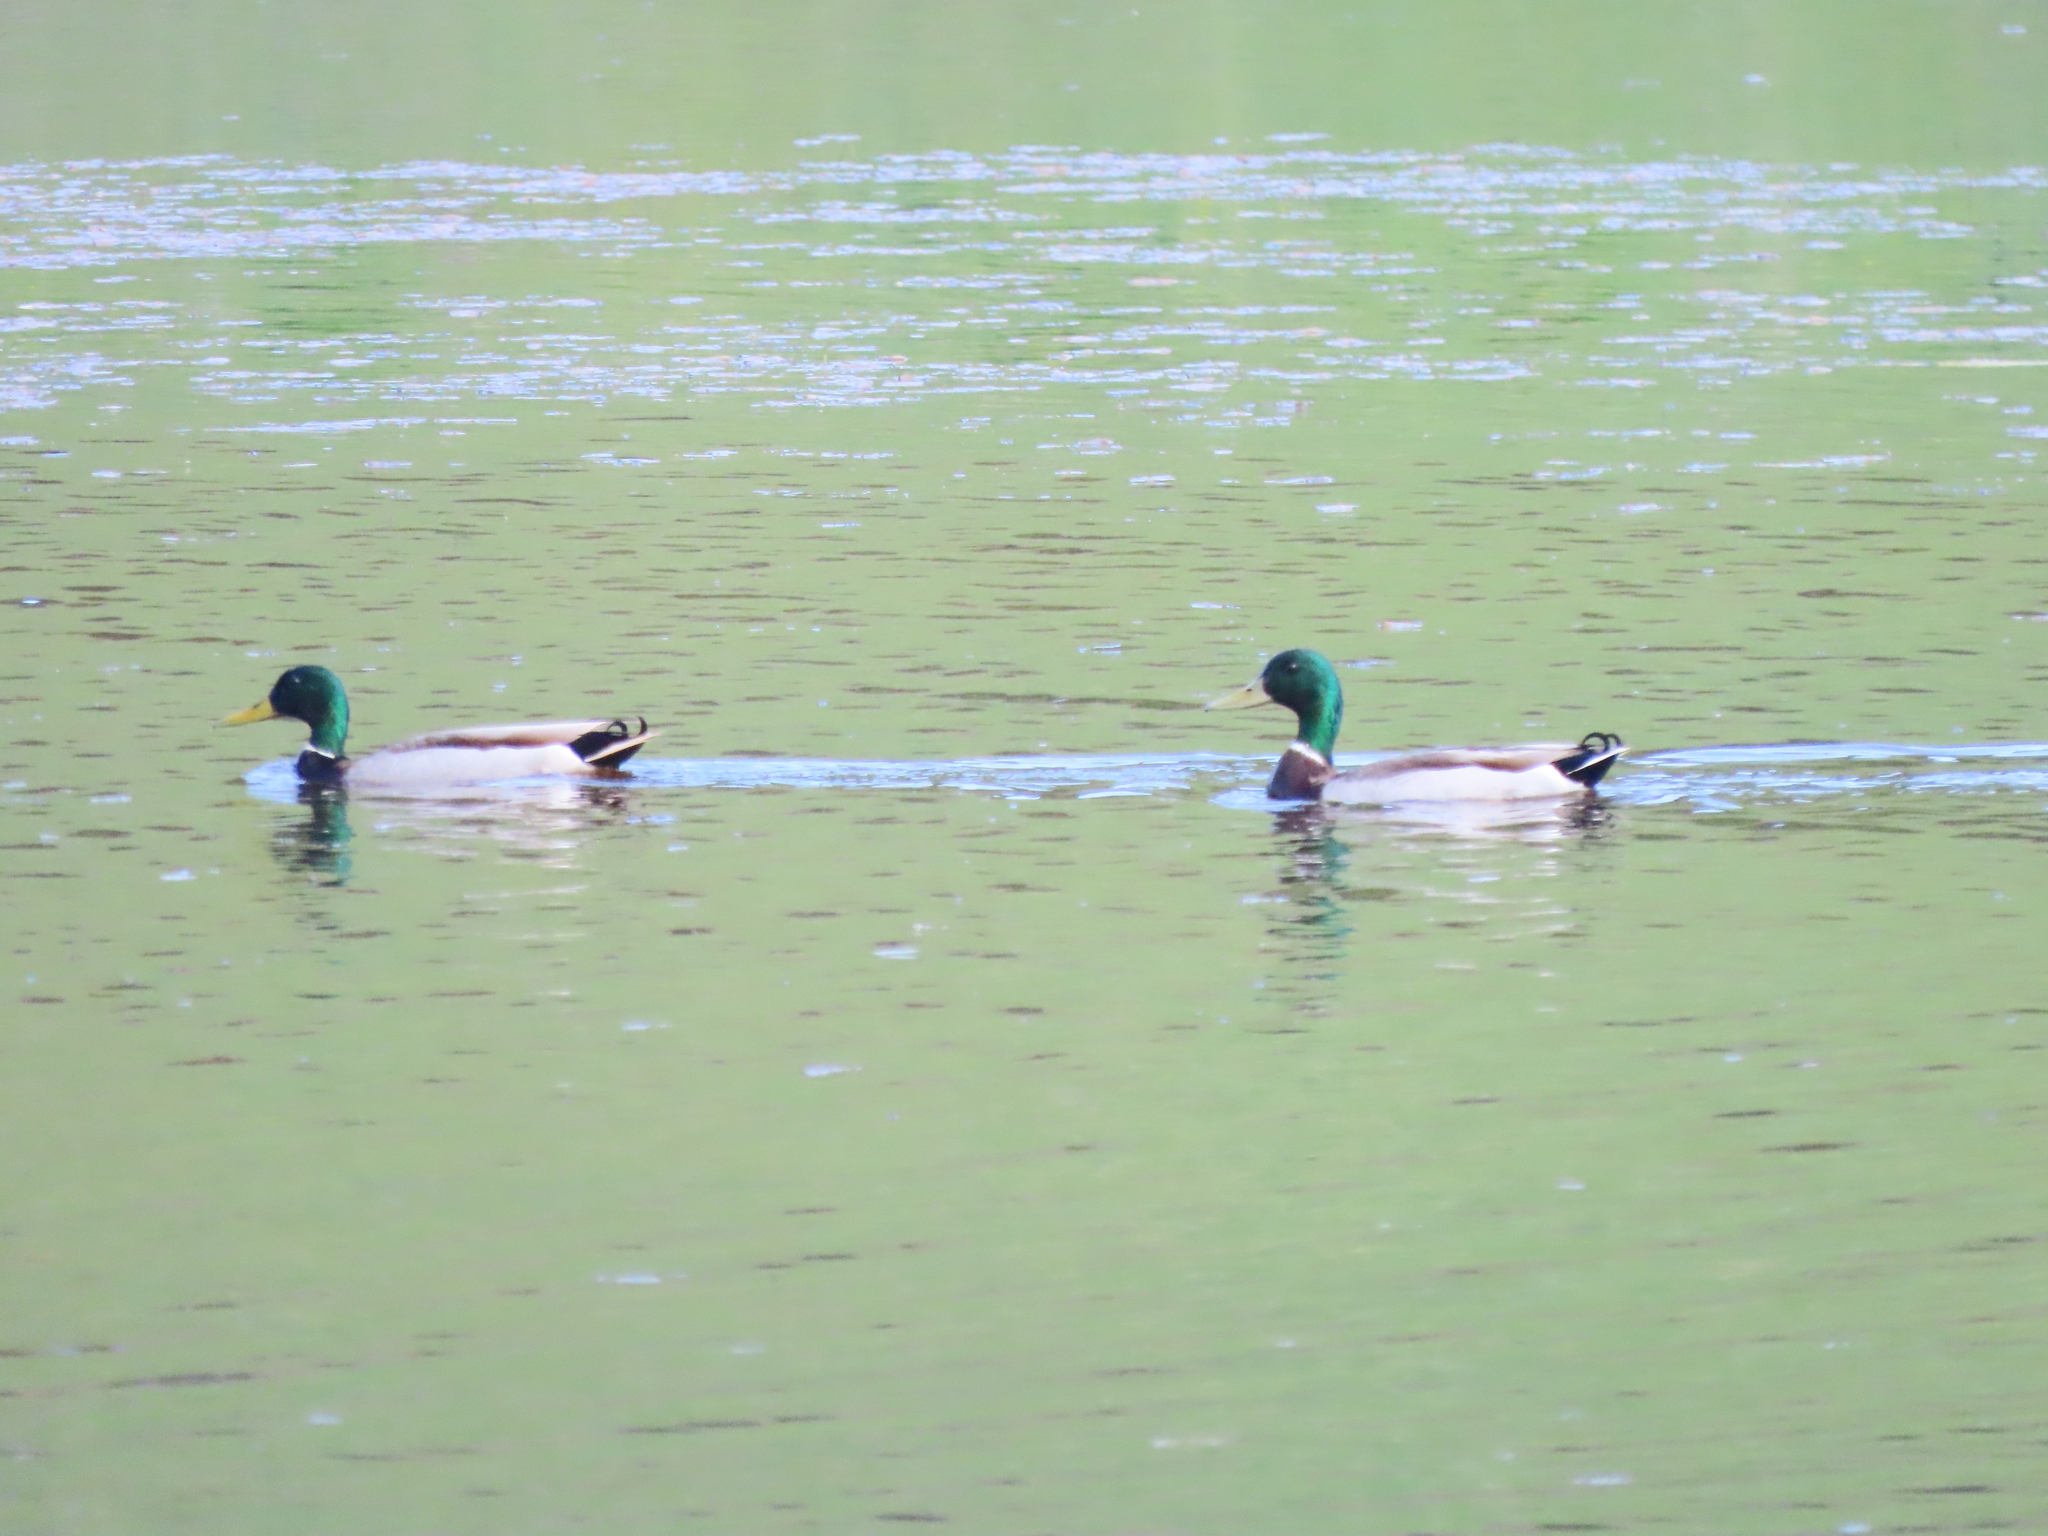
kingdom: Animalia
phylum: Chordata
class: Aves
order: Anseriformes
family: Anatidae
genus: Anas
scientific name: Anas platyrhynchos
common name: Mallard
